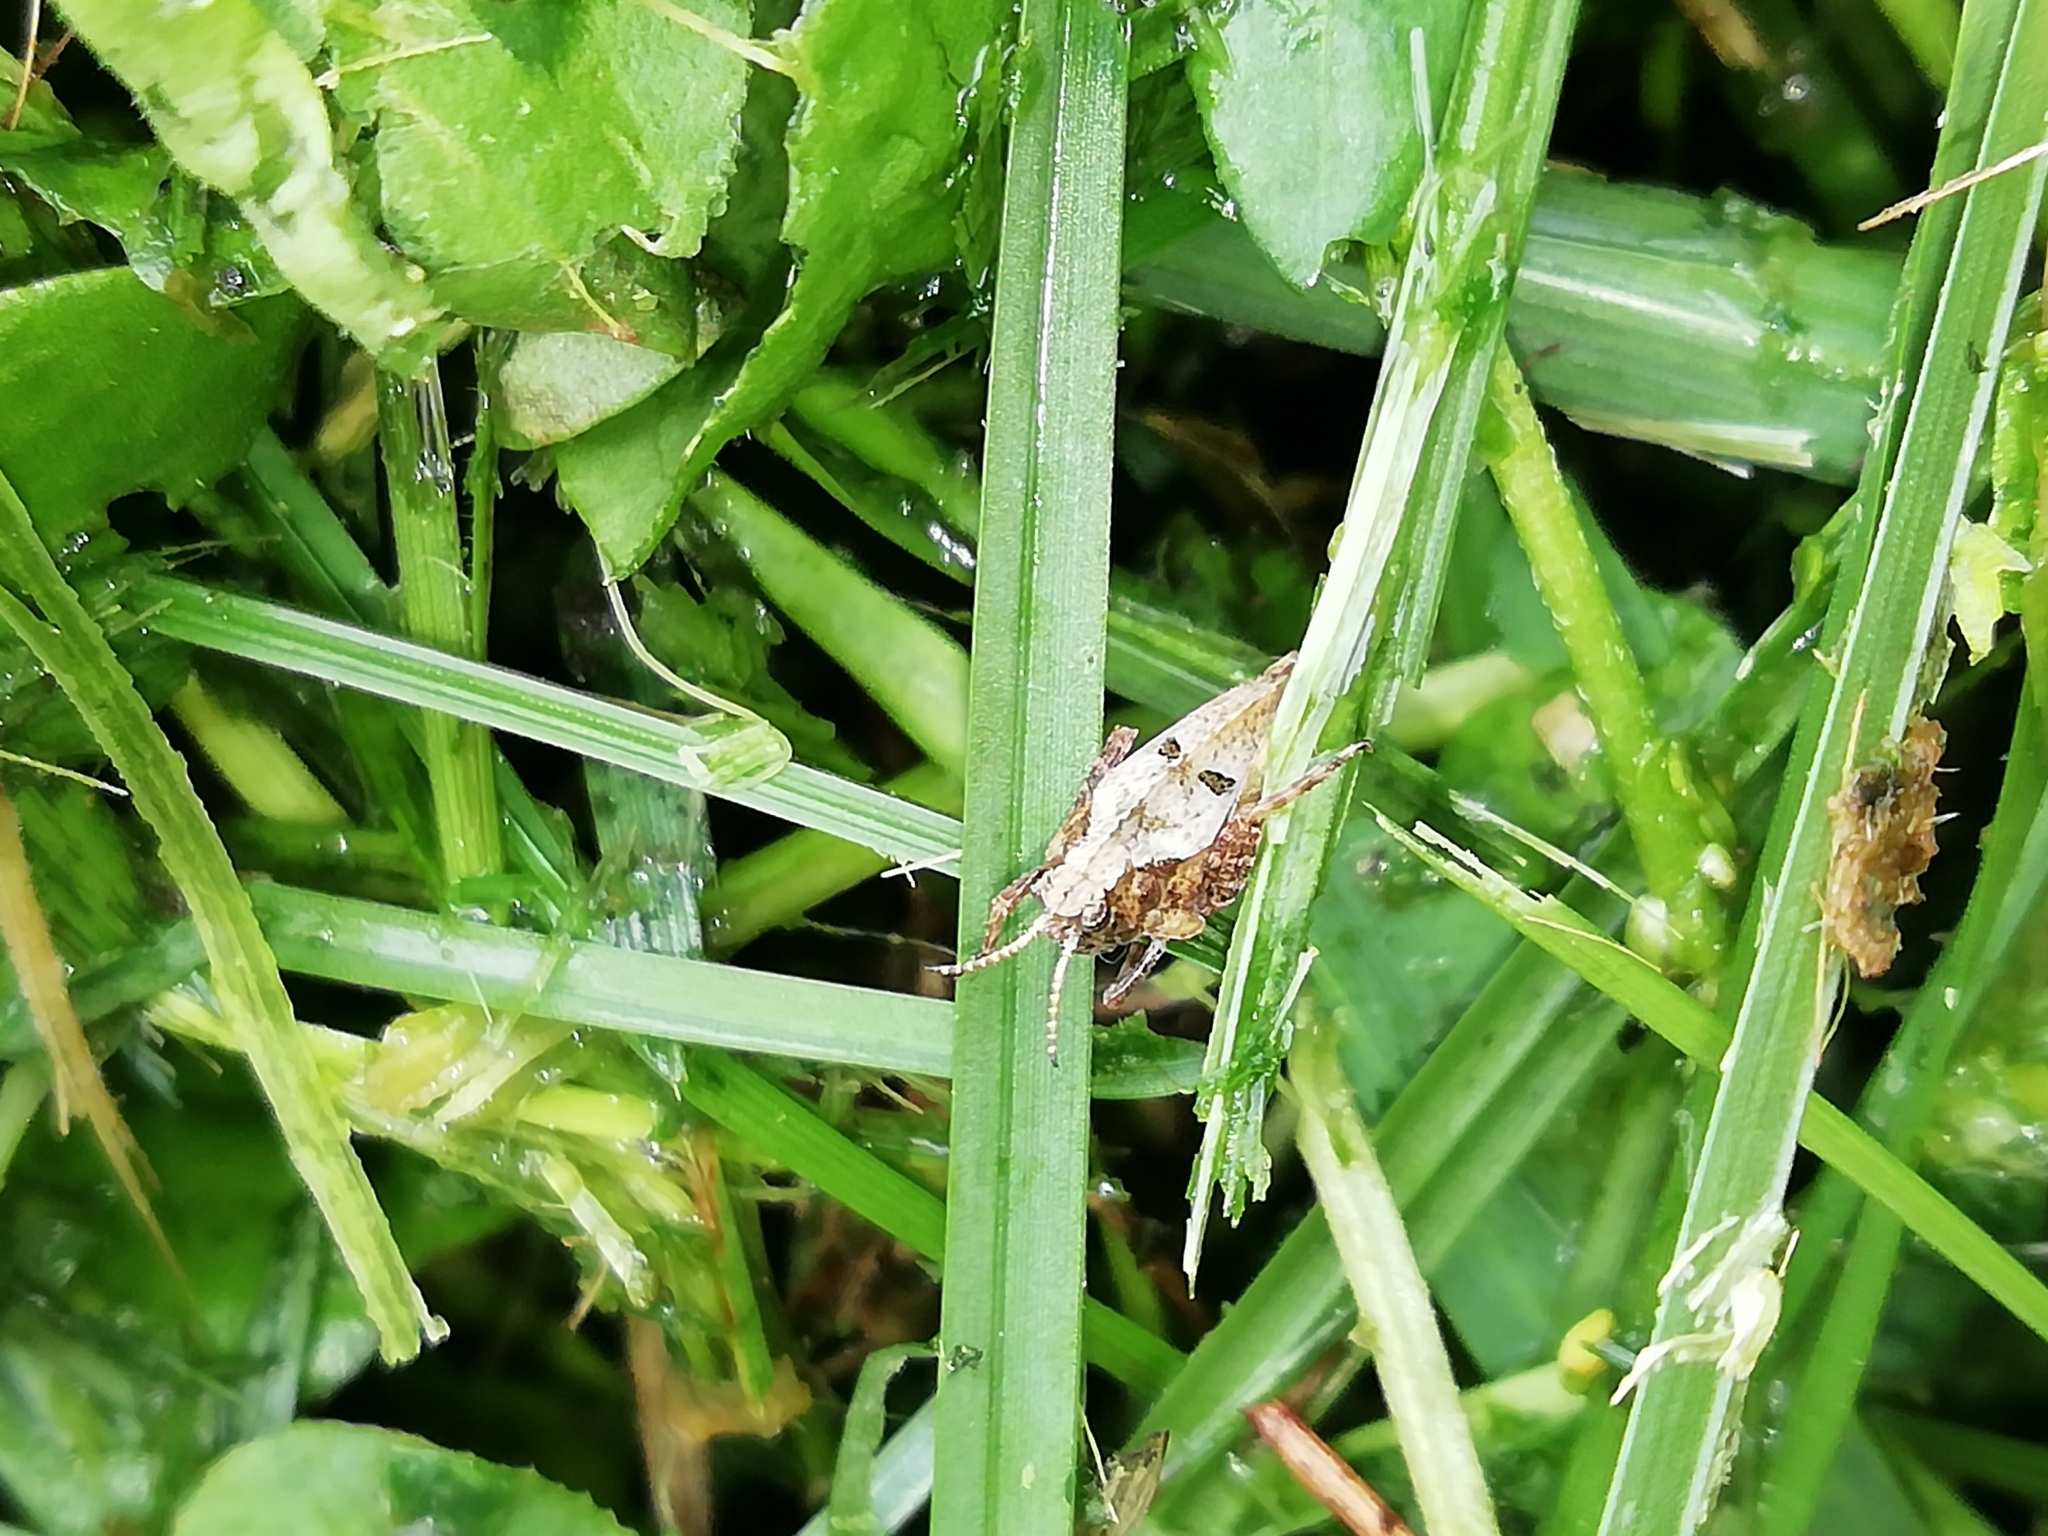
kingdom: Animalia
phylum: Arthropoda
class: Insecta
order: Orthoptera
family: Tetrigidae
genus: Tetrix
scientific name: Tetrix bipunctata
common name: Two-spotted groundhopper
